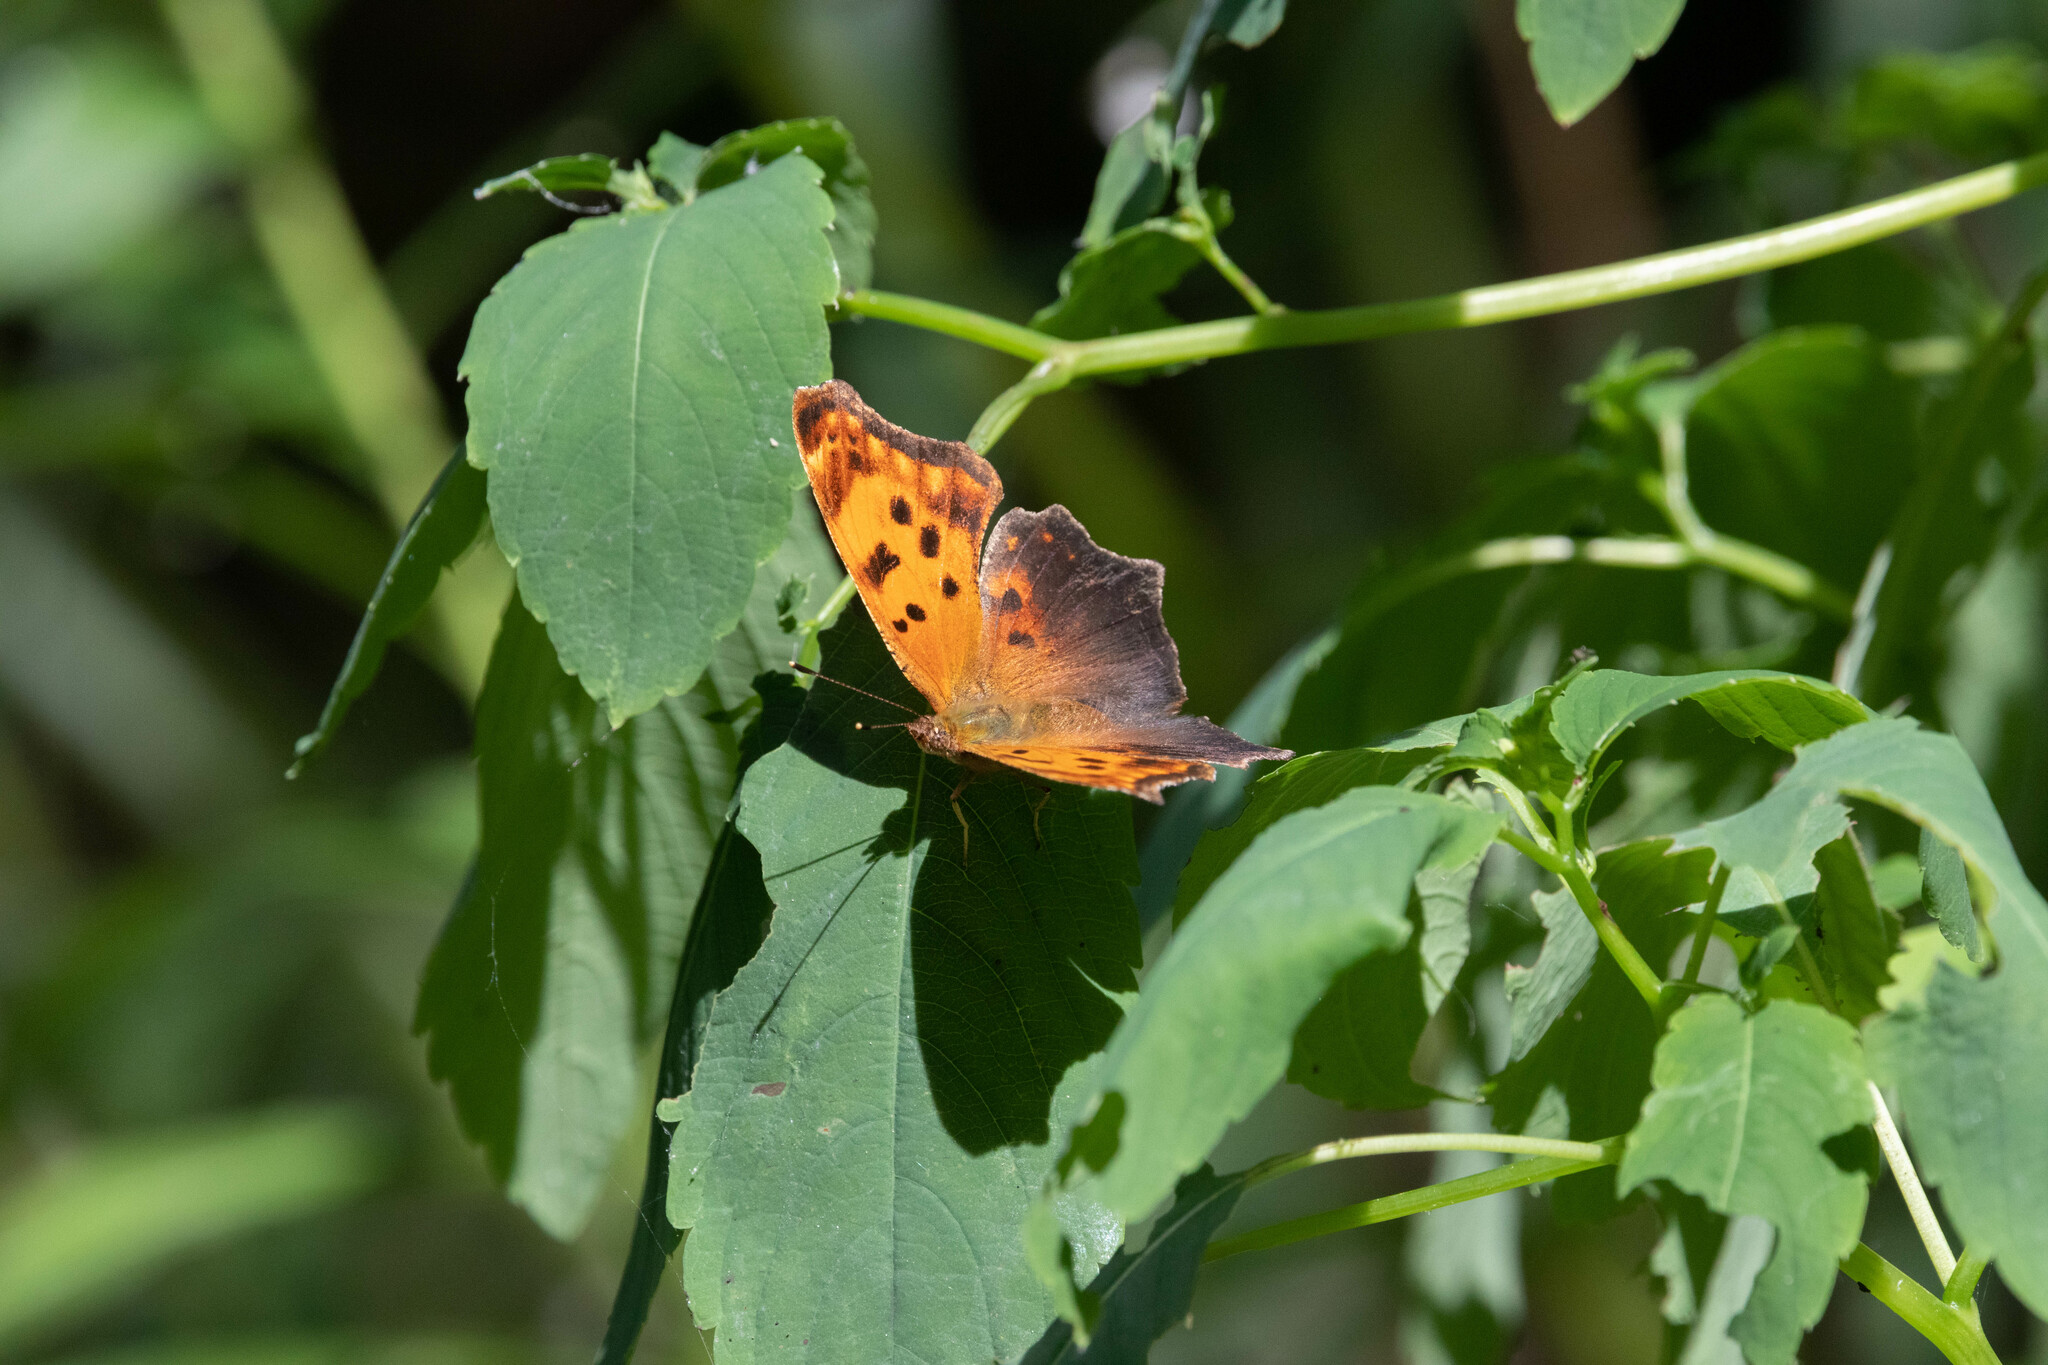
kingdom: Animalia
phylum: Arthropoda
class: Insecta
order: Lepidoptera
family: Nymphalidae
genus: Polygonia
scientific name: Polygonia comma
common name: Eastern comma
